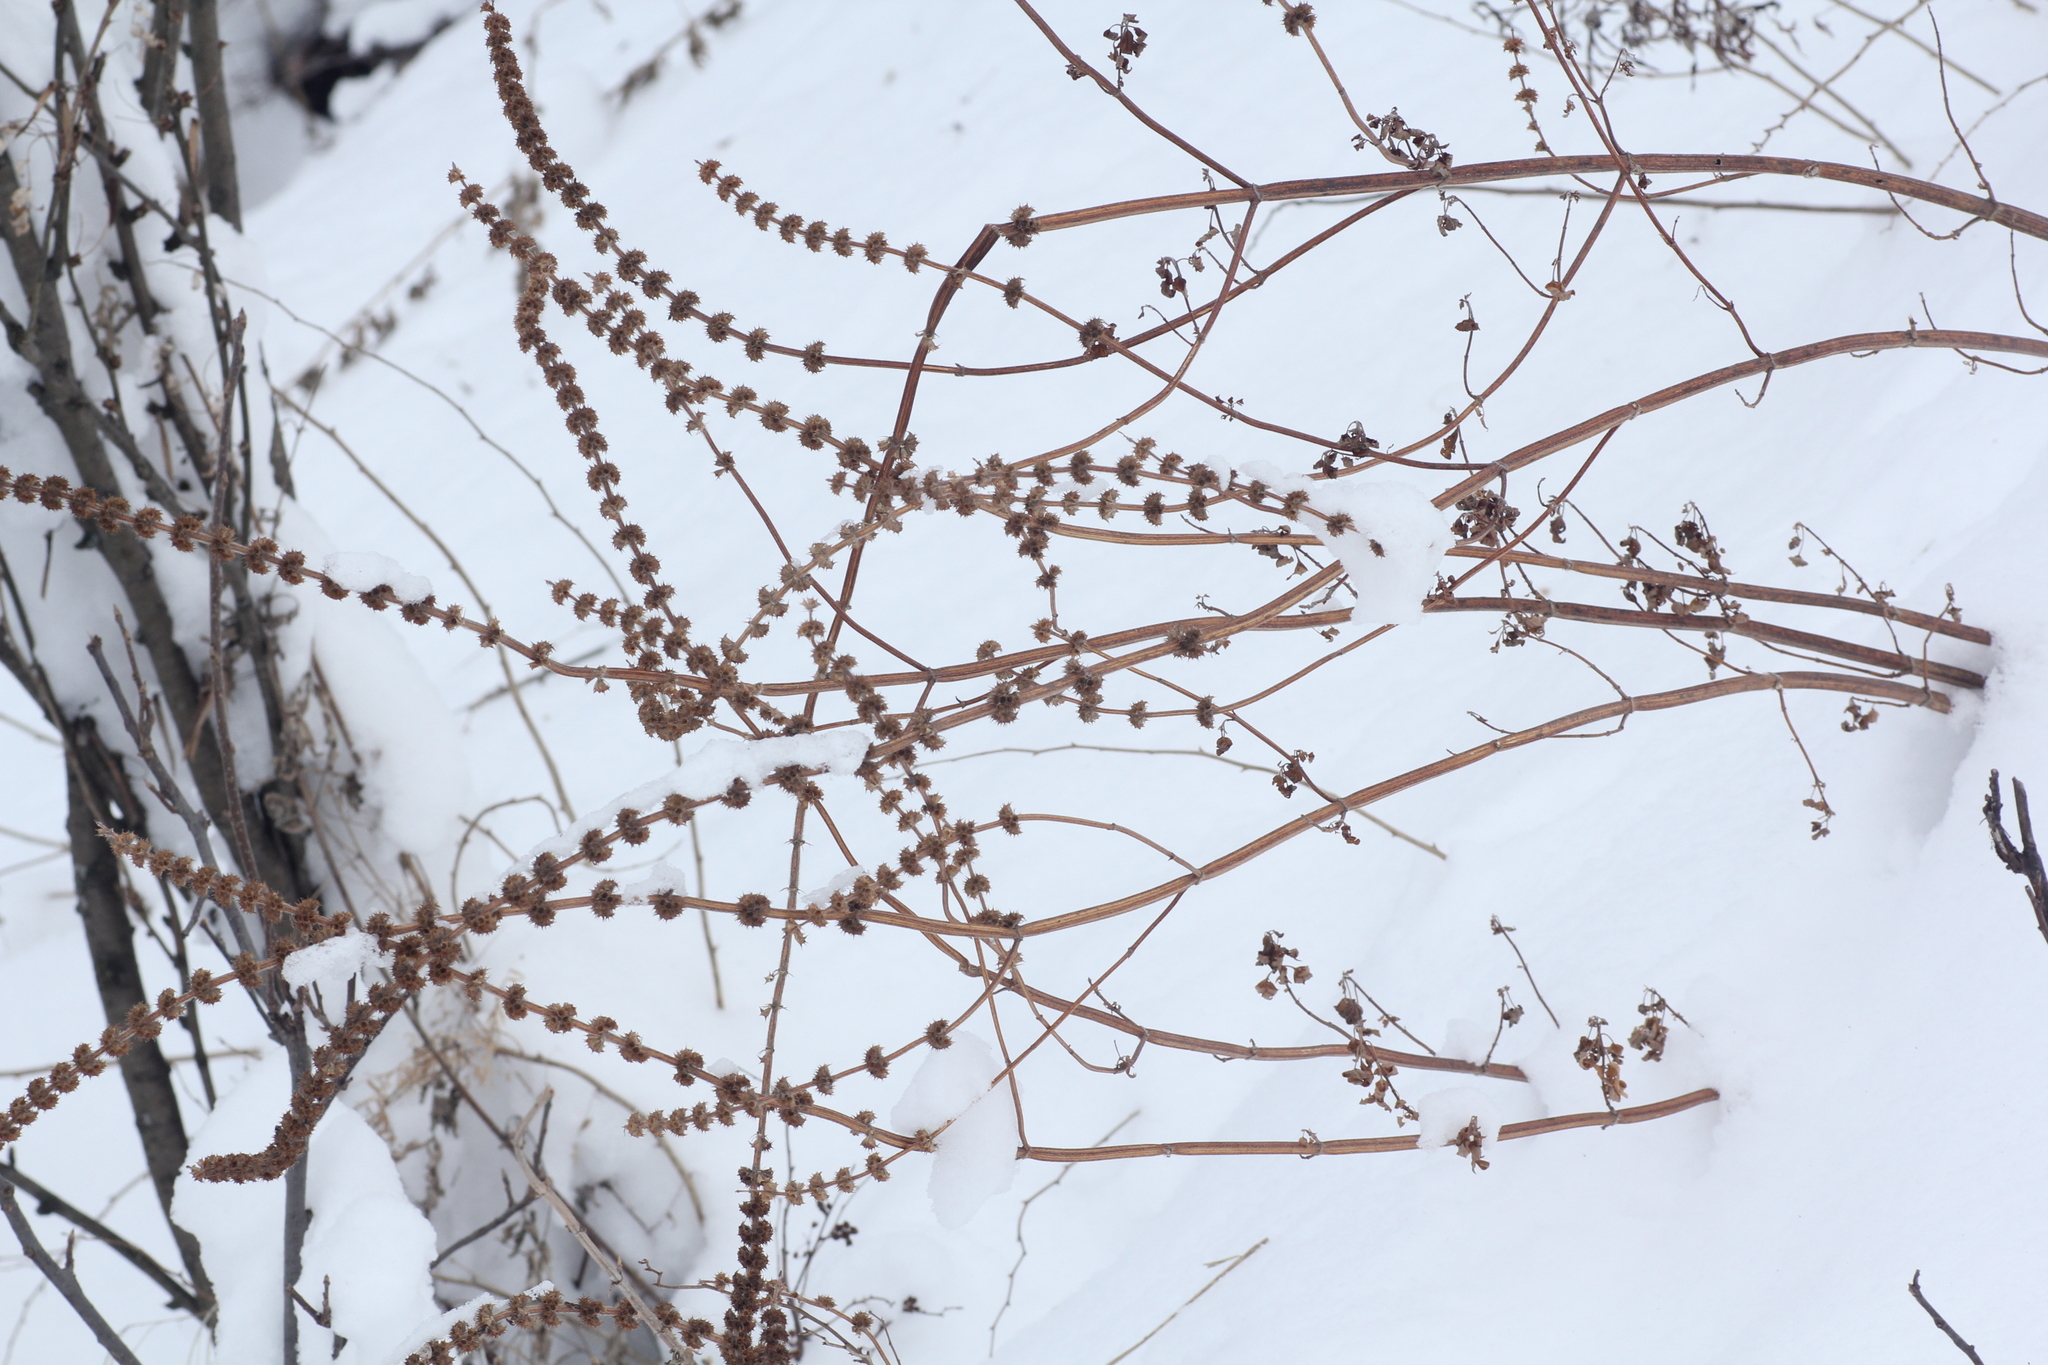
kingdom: Plantae
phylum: Tracheophyta
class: Magnoliopsida
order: Lamiales
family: Lamiaceae
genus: Leonurus
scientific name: Leonurus quinquelobatus
